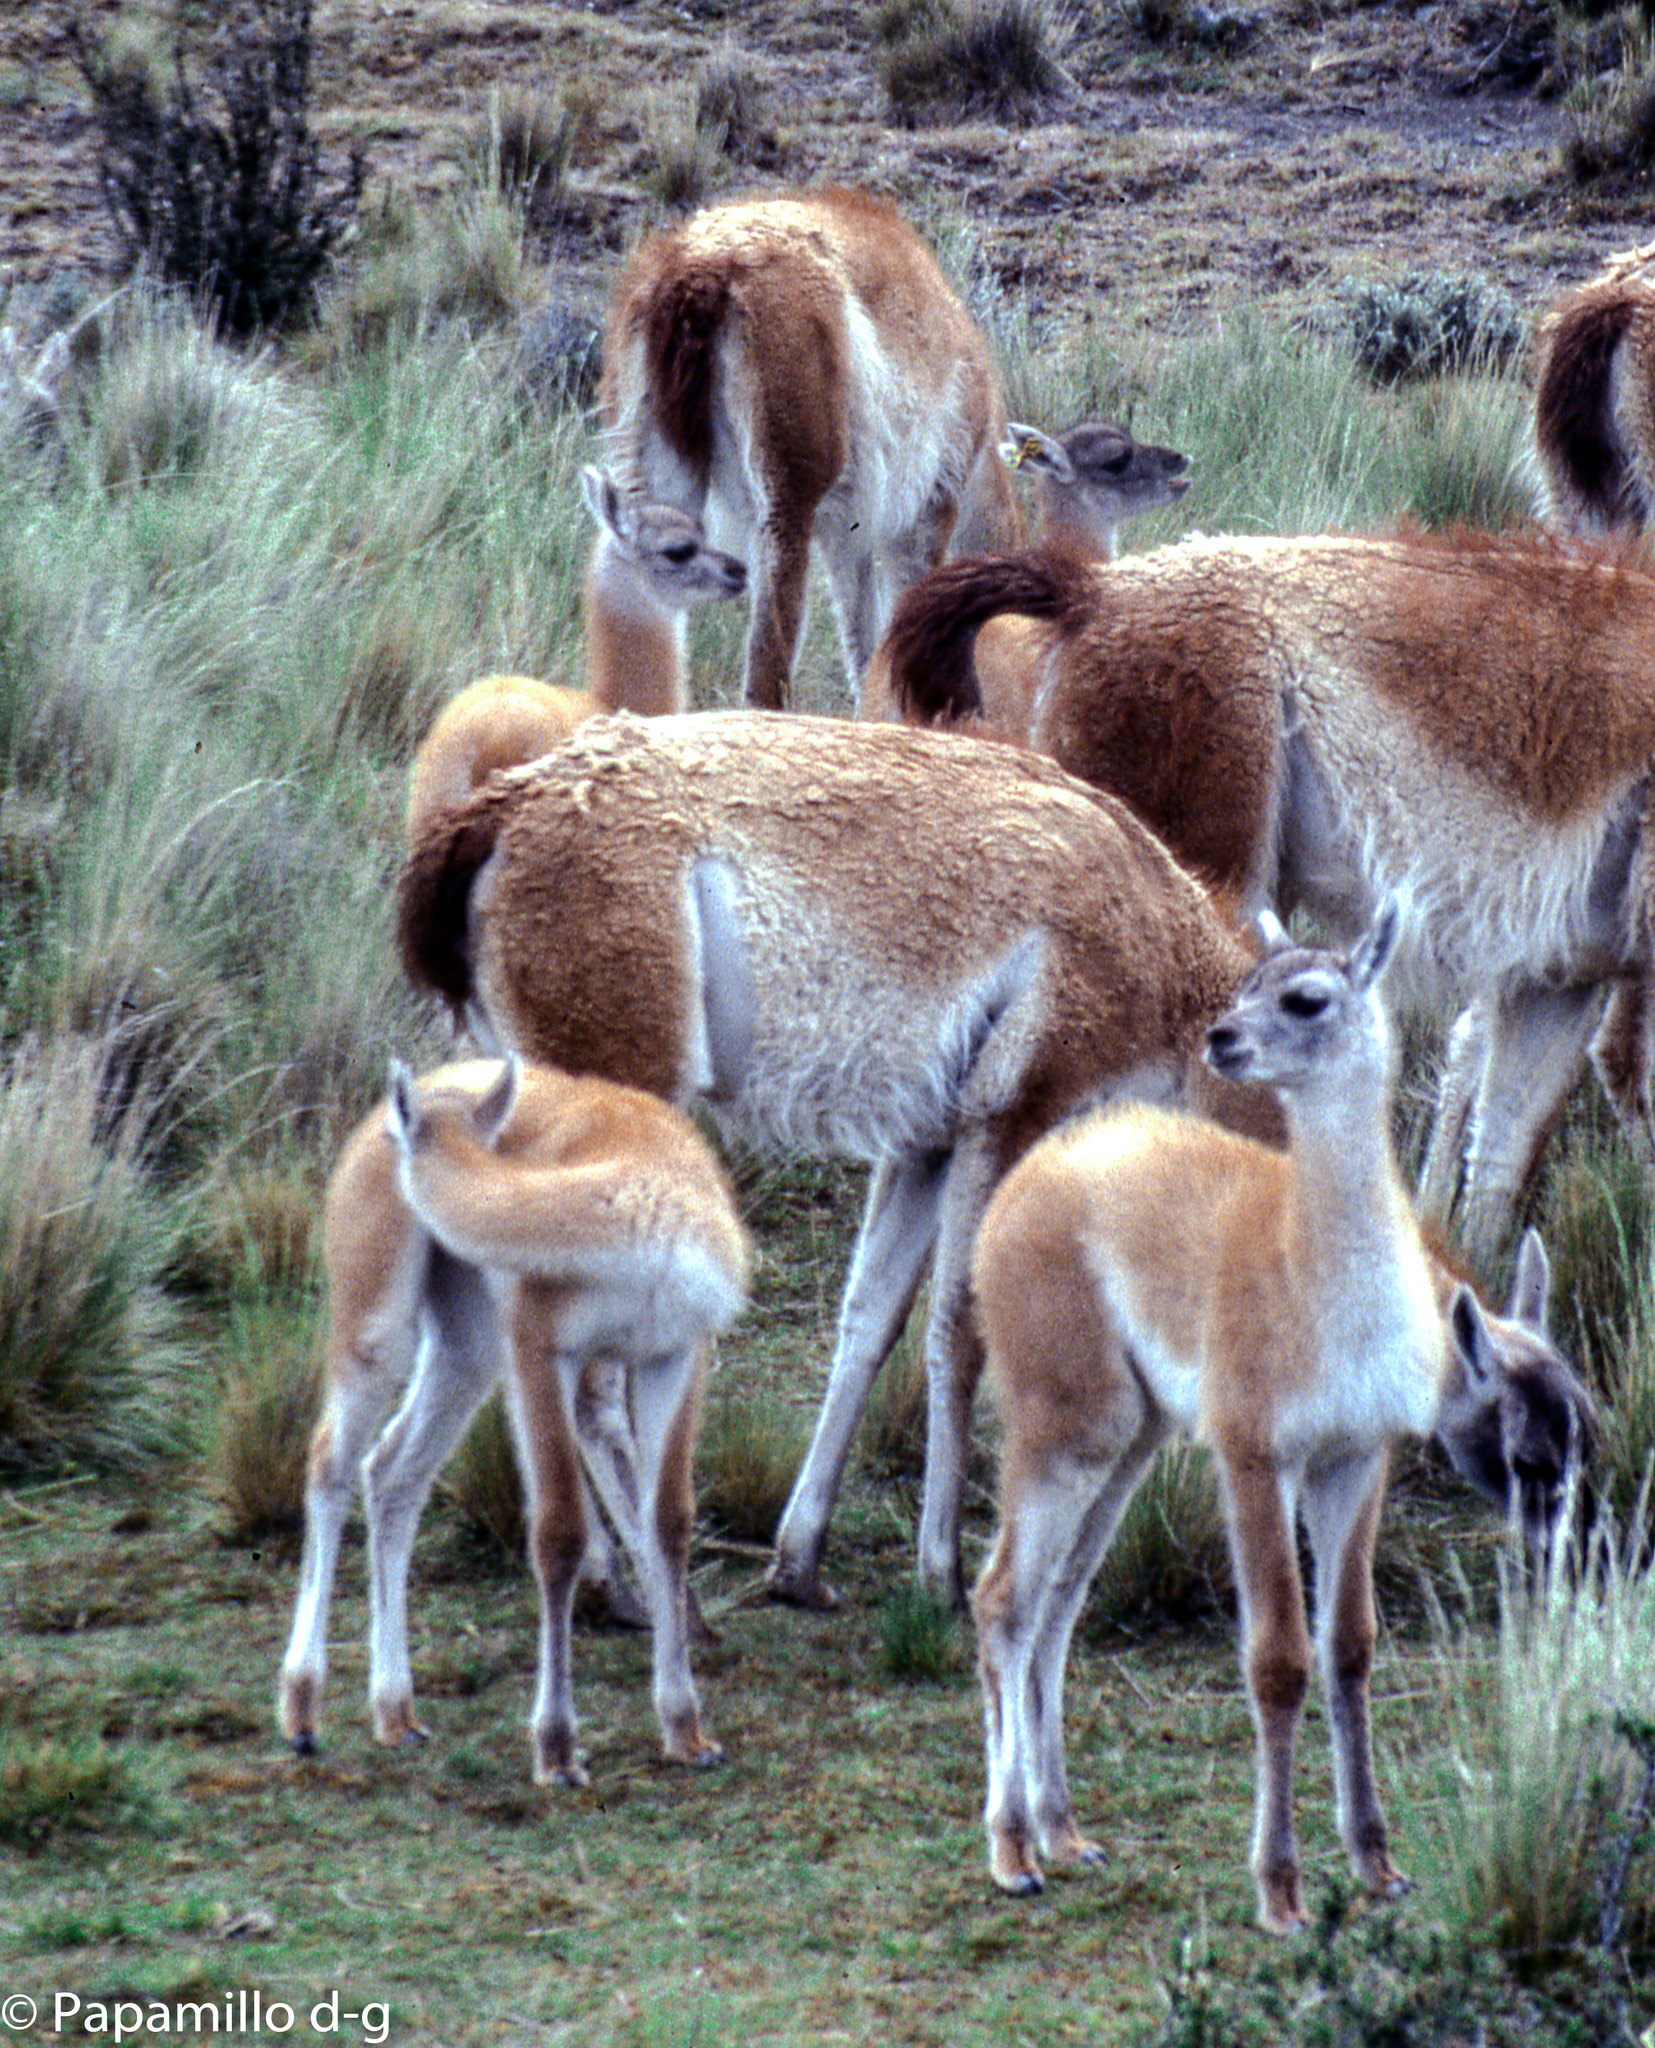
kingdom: Animalia
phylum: Chordata
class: Mammalia
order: Artiodactyla
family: Camelidae
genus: Lama
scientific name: Lama glama
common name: Llama
